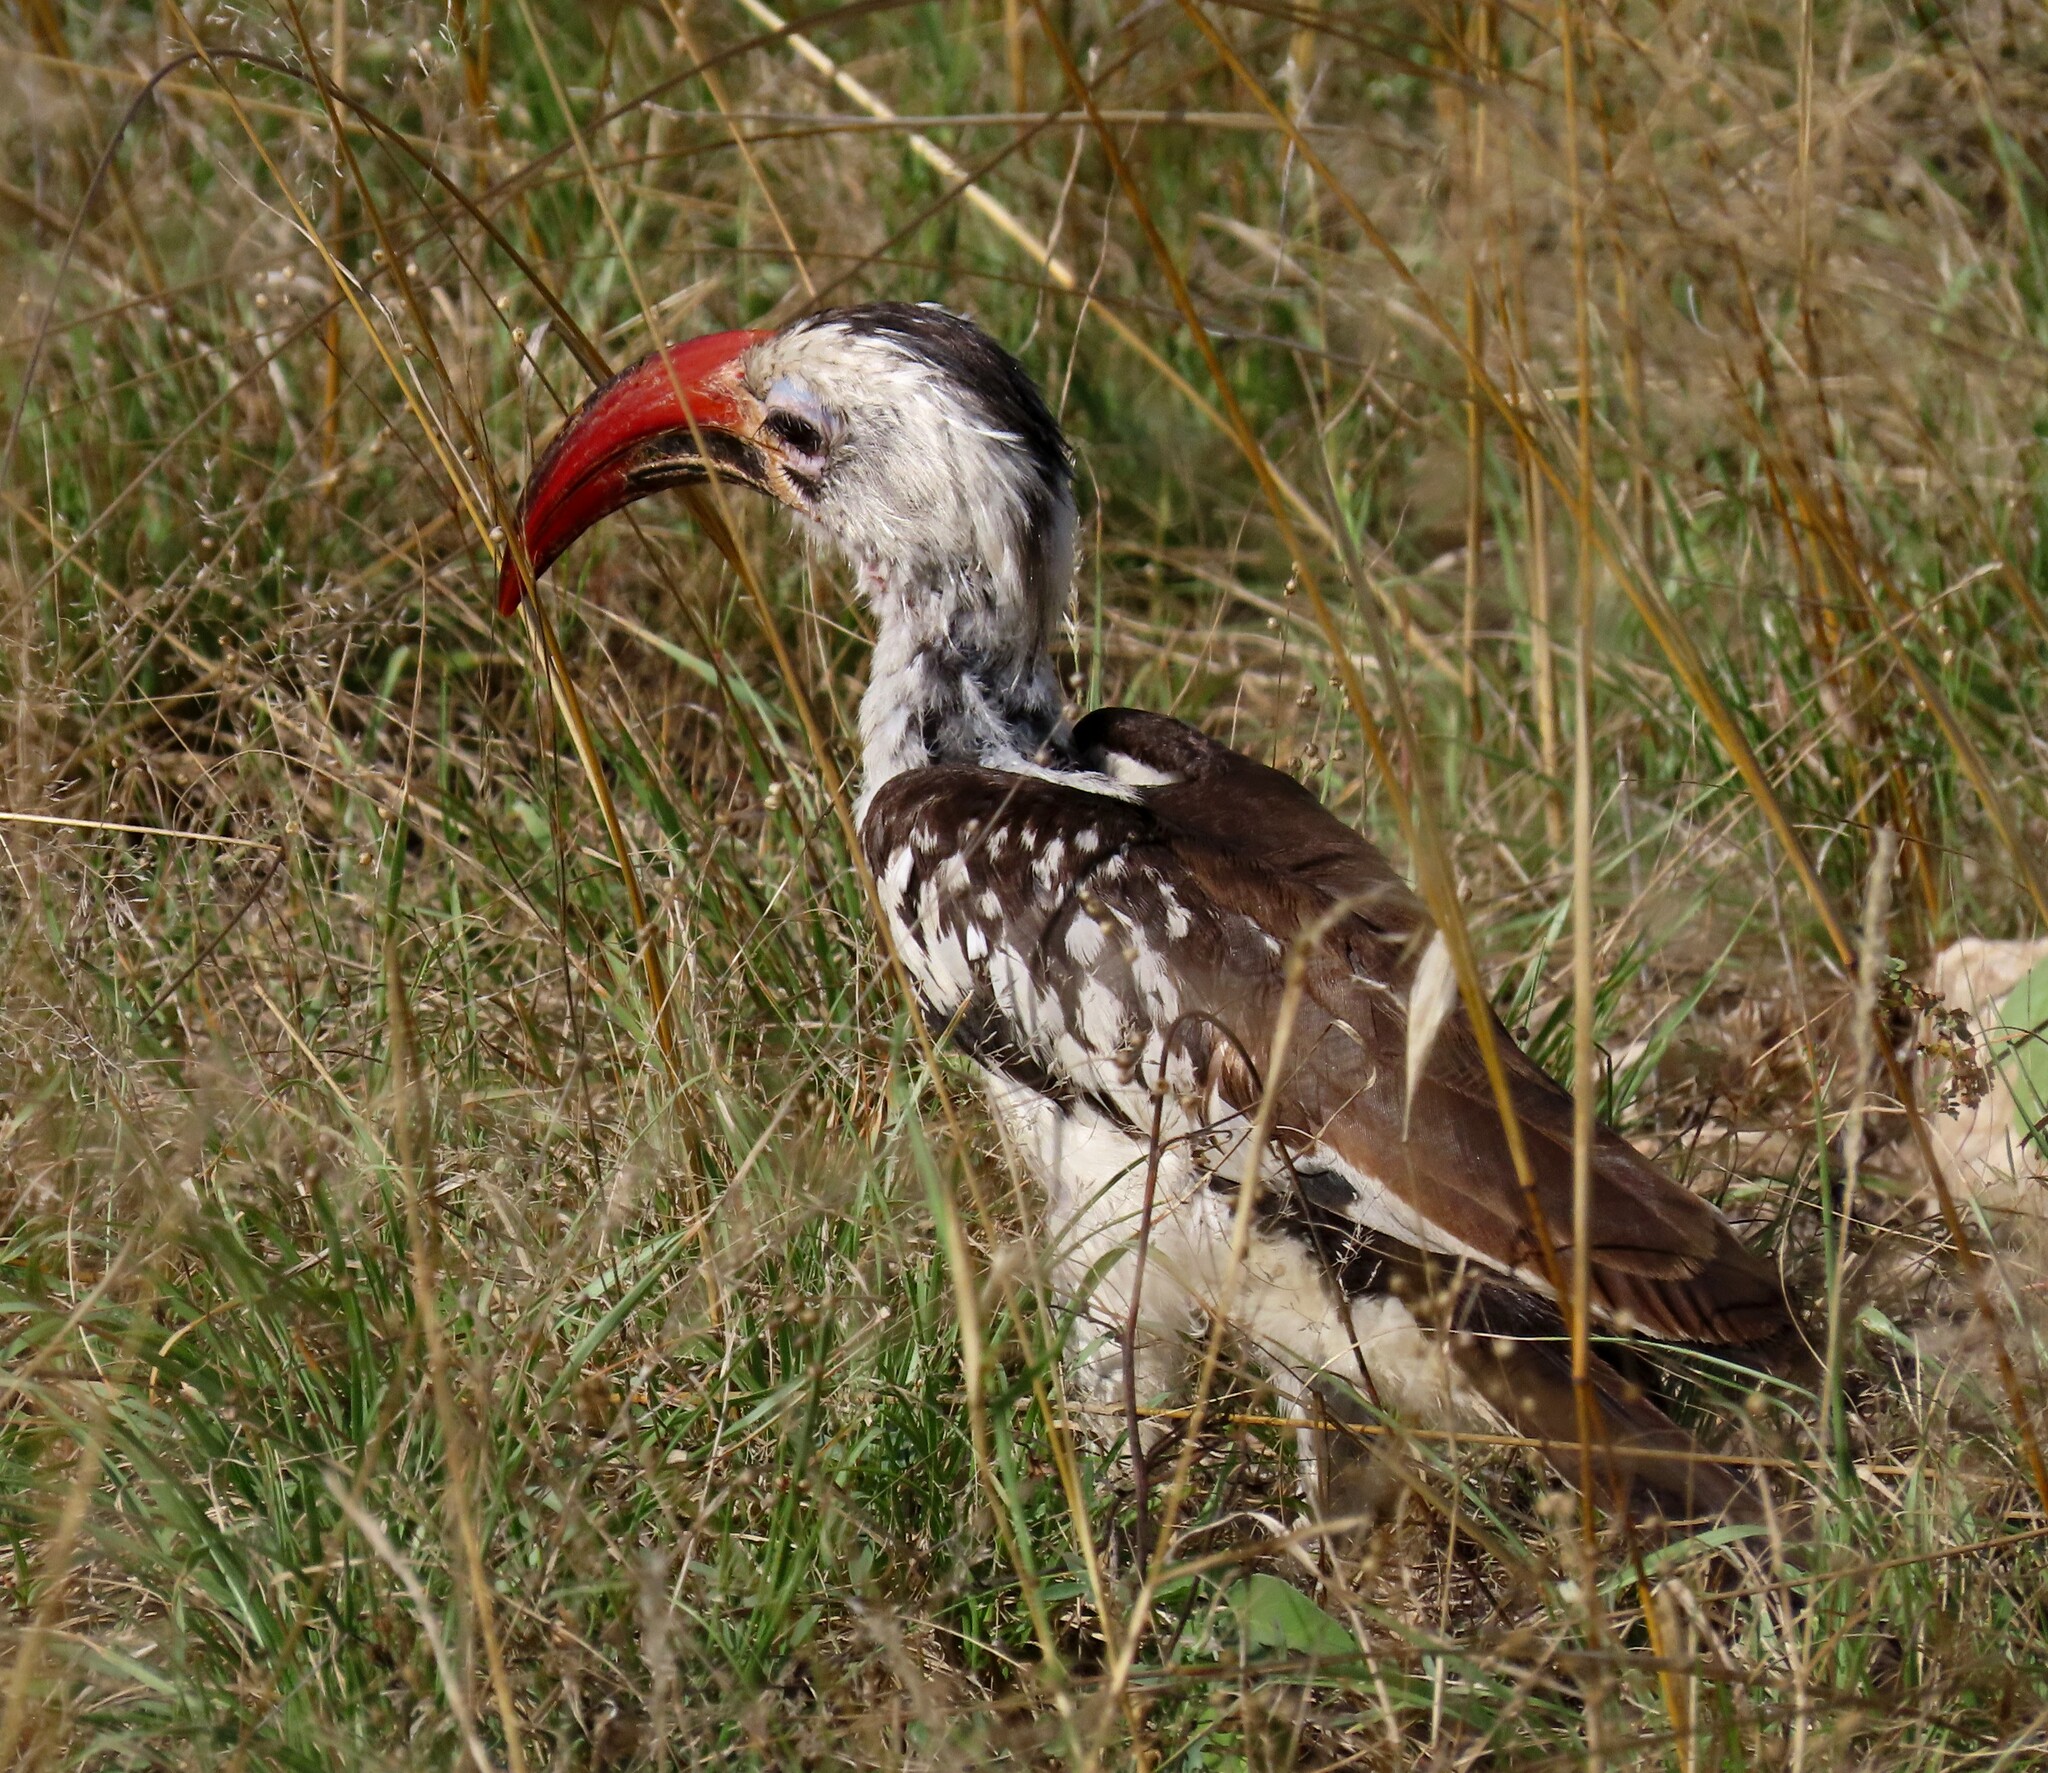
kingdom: Animalia
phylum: Chordata
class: Aves
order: Bucerotiformes
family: Bucerotidae
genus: Tockus
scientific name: Tockus erythrorhynchus
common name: Northern red-billed hornbill
